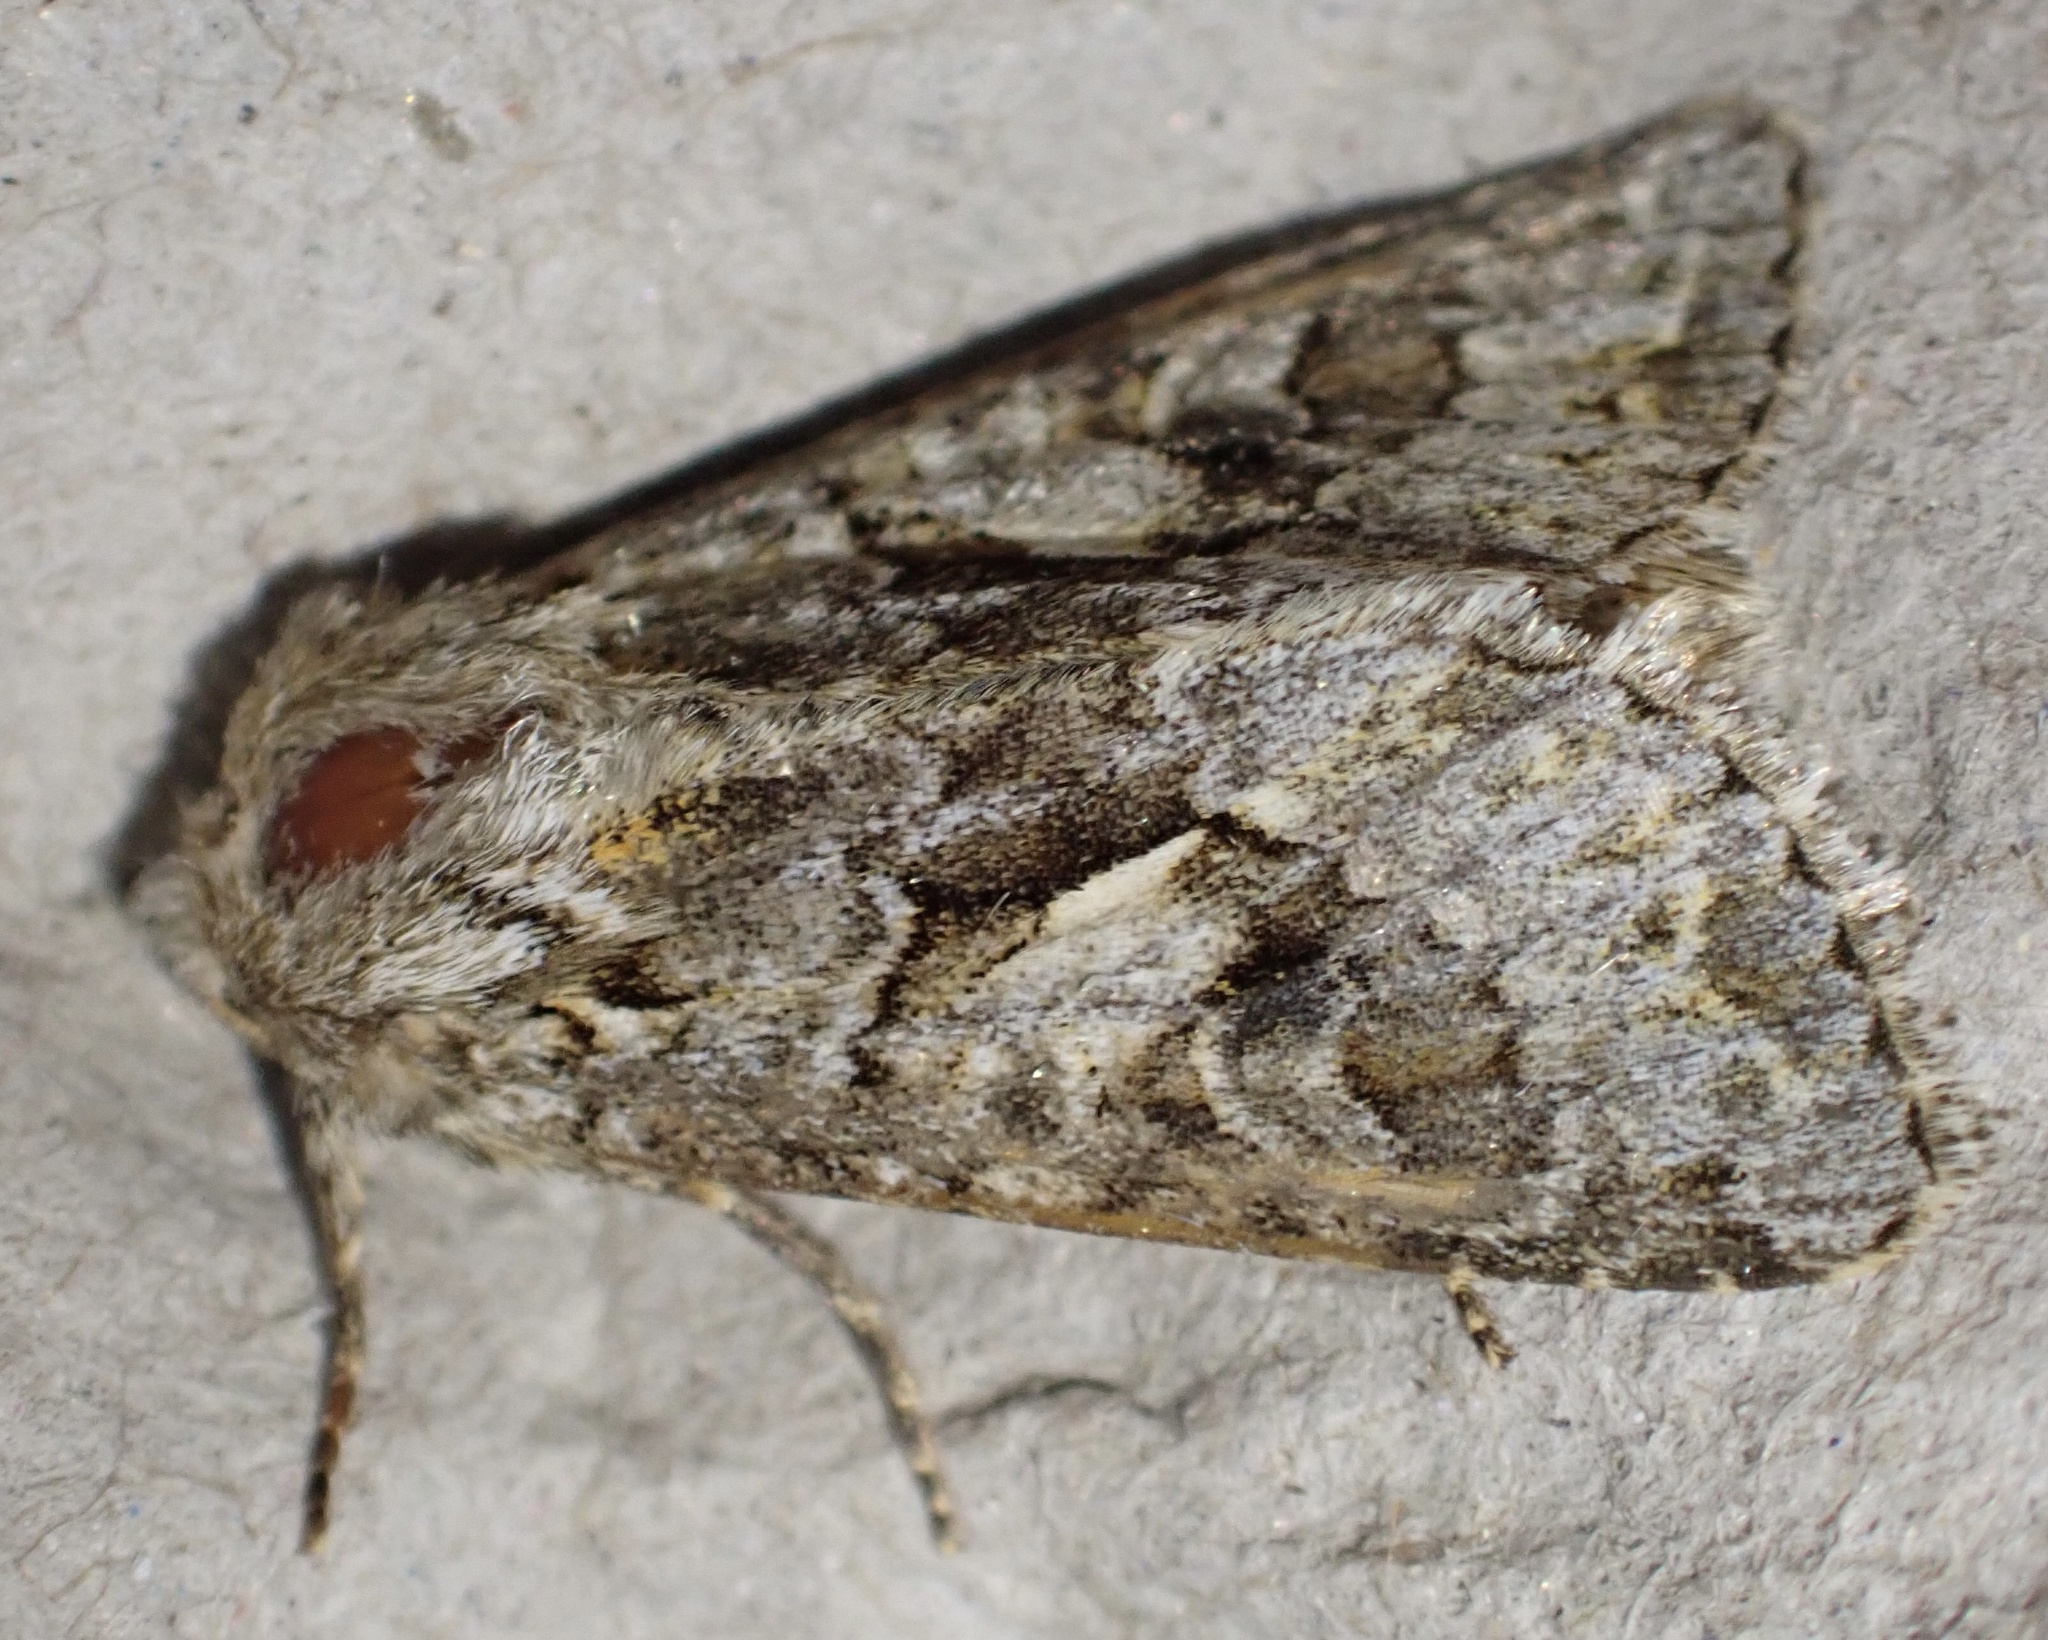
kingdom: Animalia
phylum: Arthropoda
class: Insecta
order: Lepidoptera
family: Noctuidae
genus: Hada
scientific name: Hada plebeja
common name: Shears
